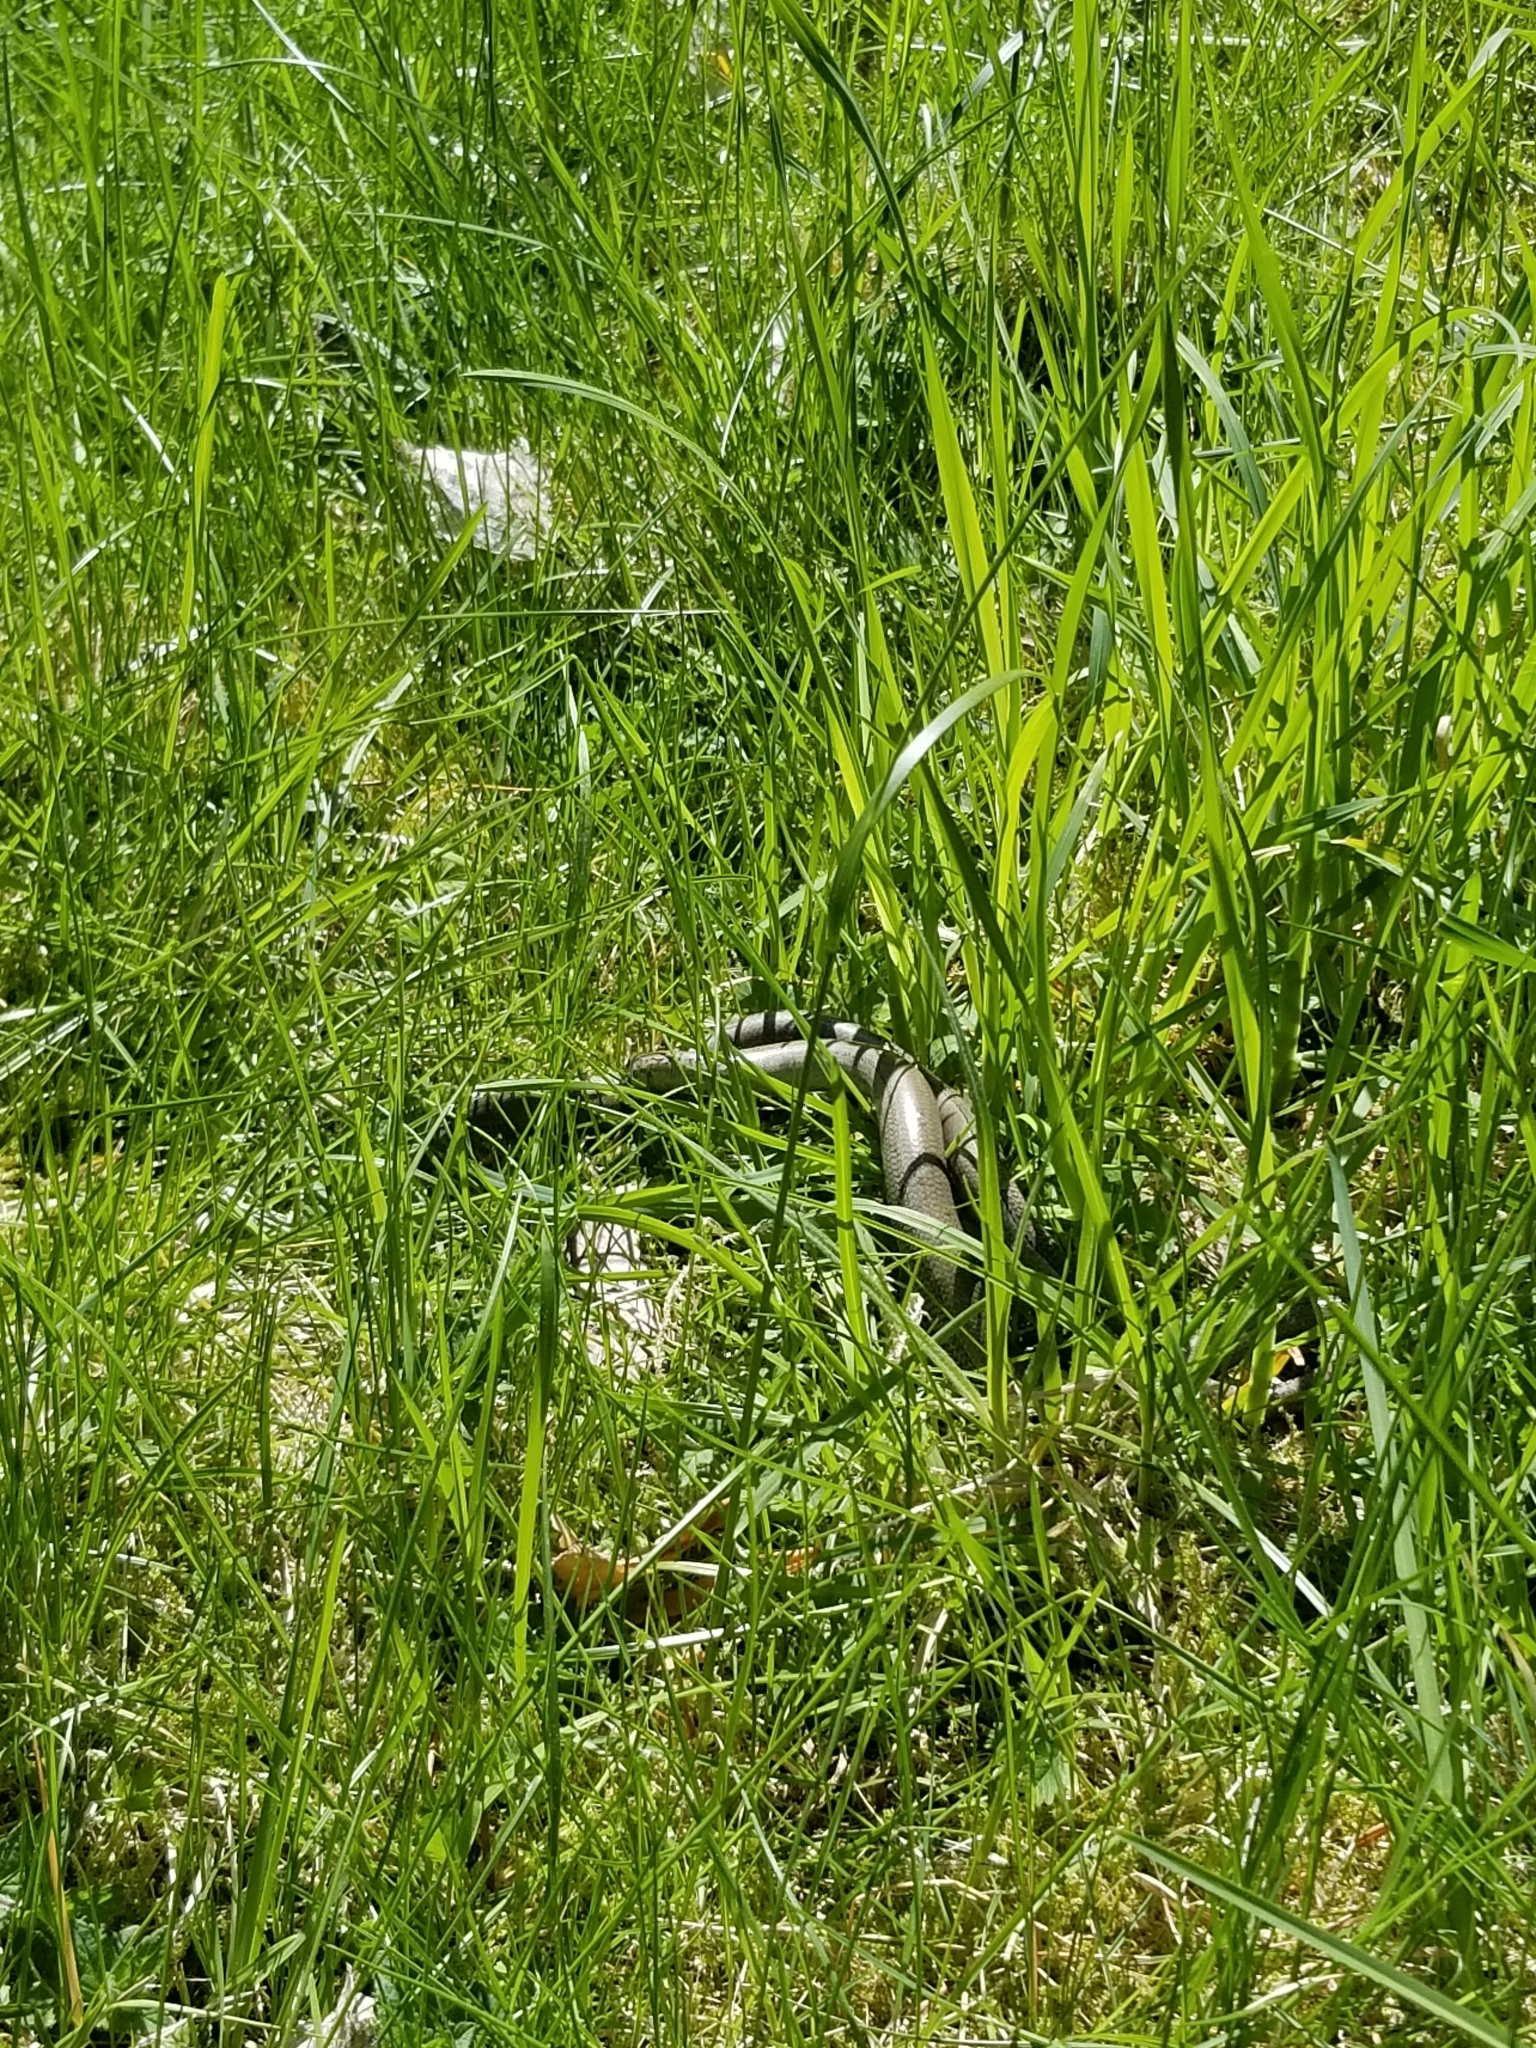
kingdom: Animalia
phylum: Chordata
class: Squamata
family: Anguidae
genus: Anguis
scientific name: Anguis fragilis
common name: Slow worm
